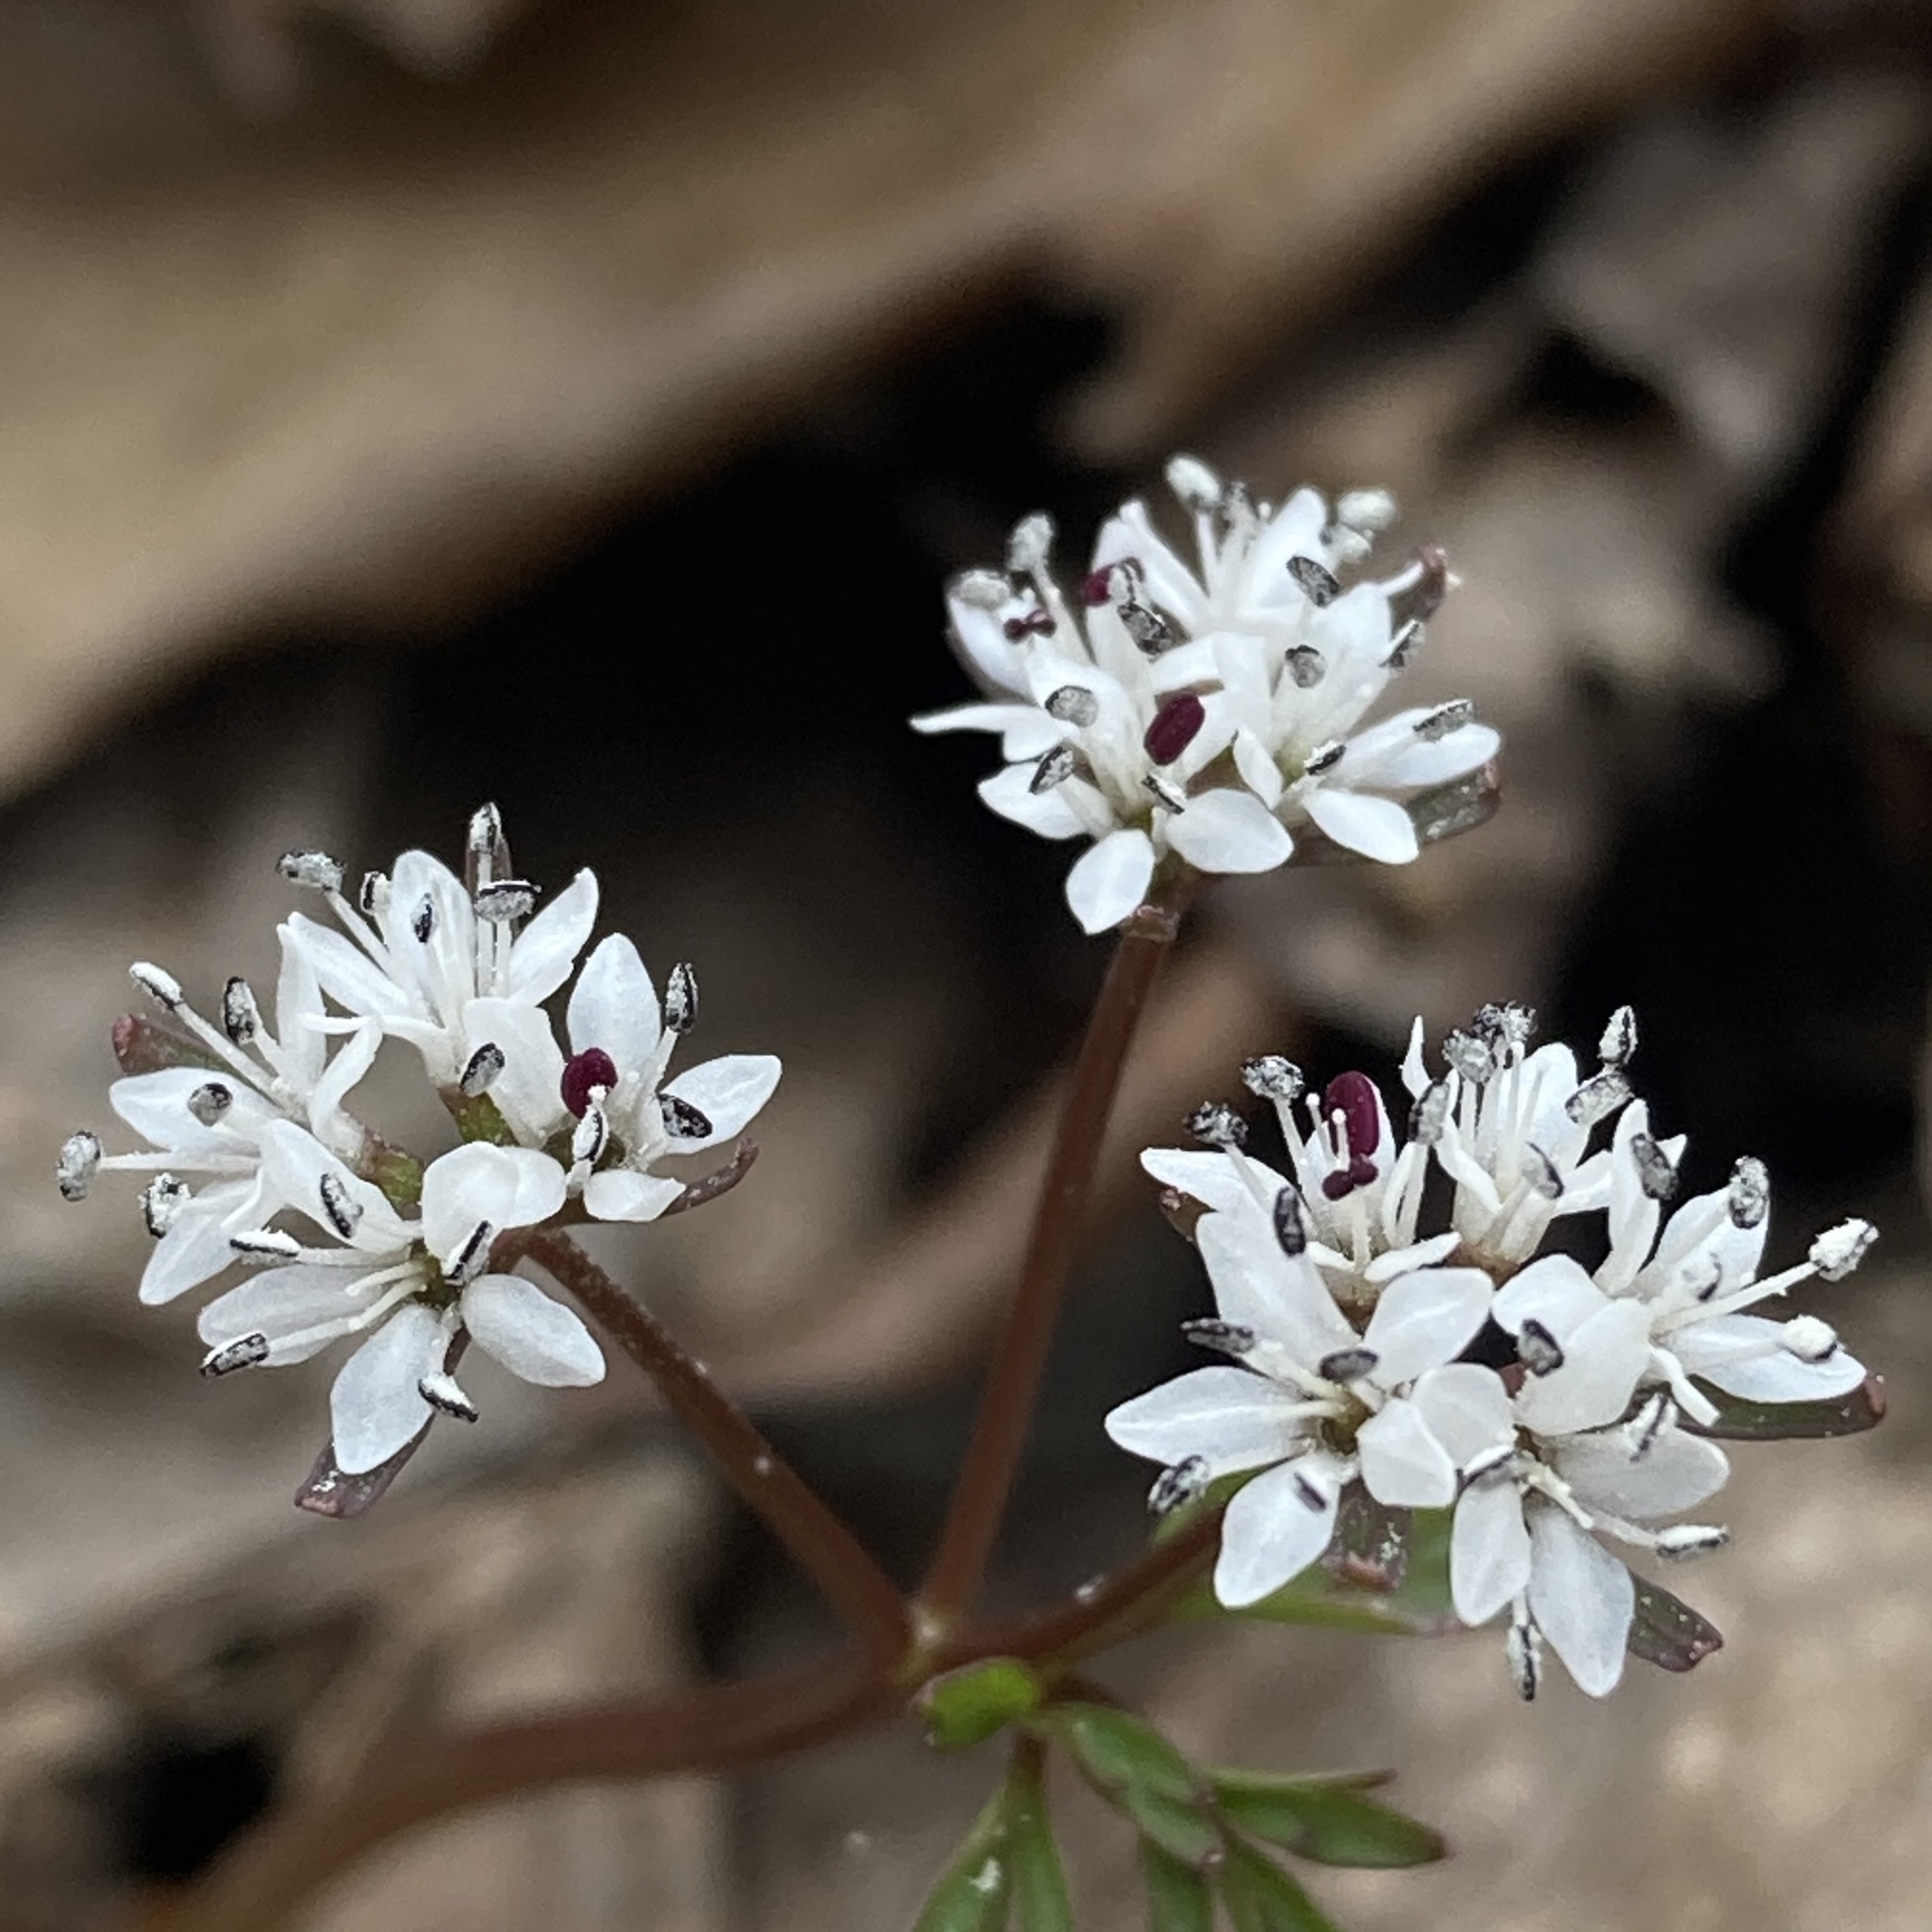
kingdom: Plantae
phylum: Tracheophyta
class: Magnoliopsida
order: Apiales
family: Apiaceae
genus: Erigenia
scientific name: Erigenia bulbosa
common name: Pepper-and-salt
